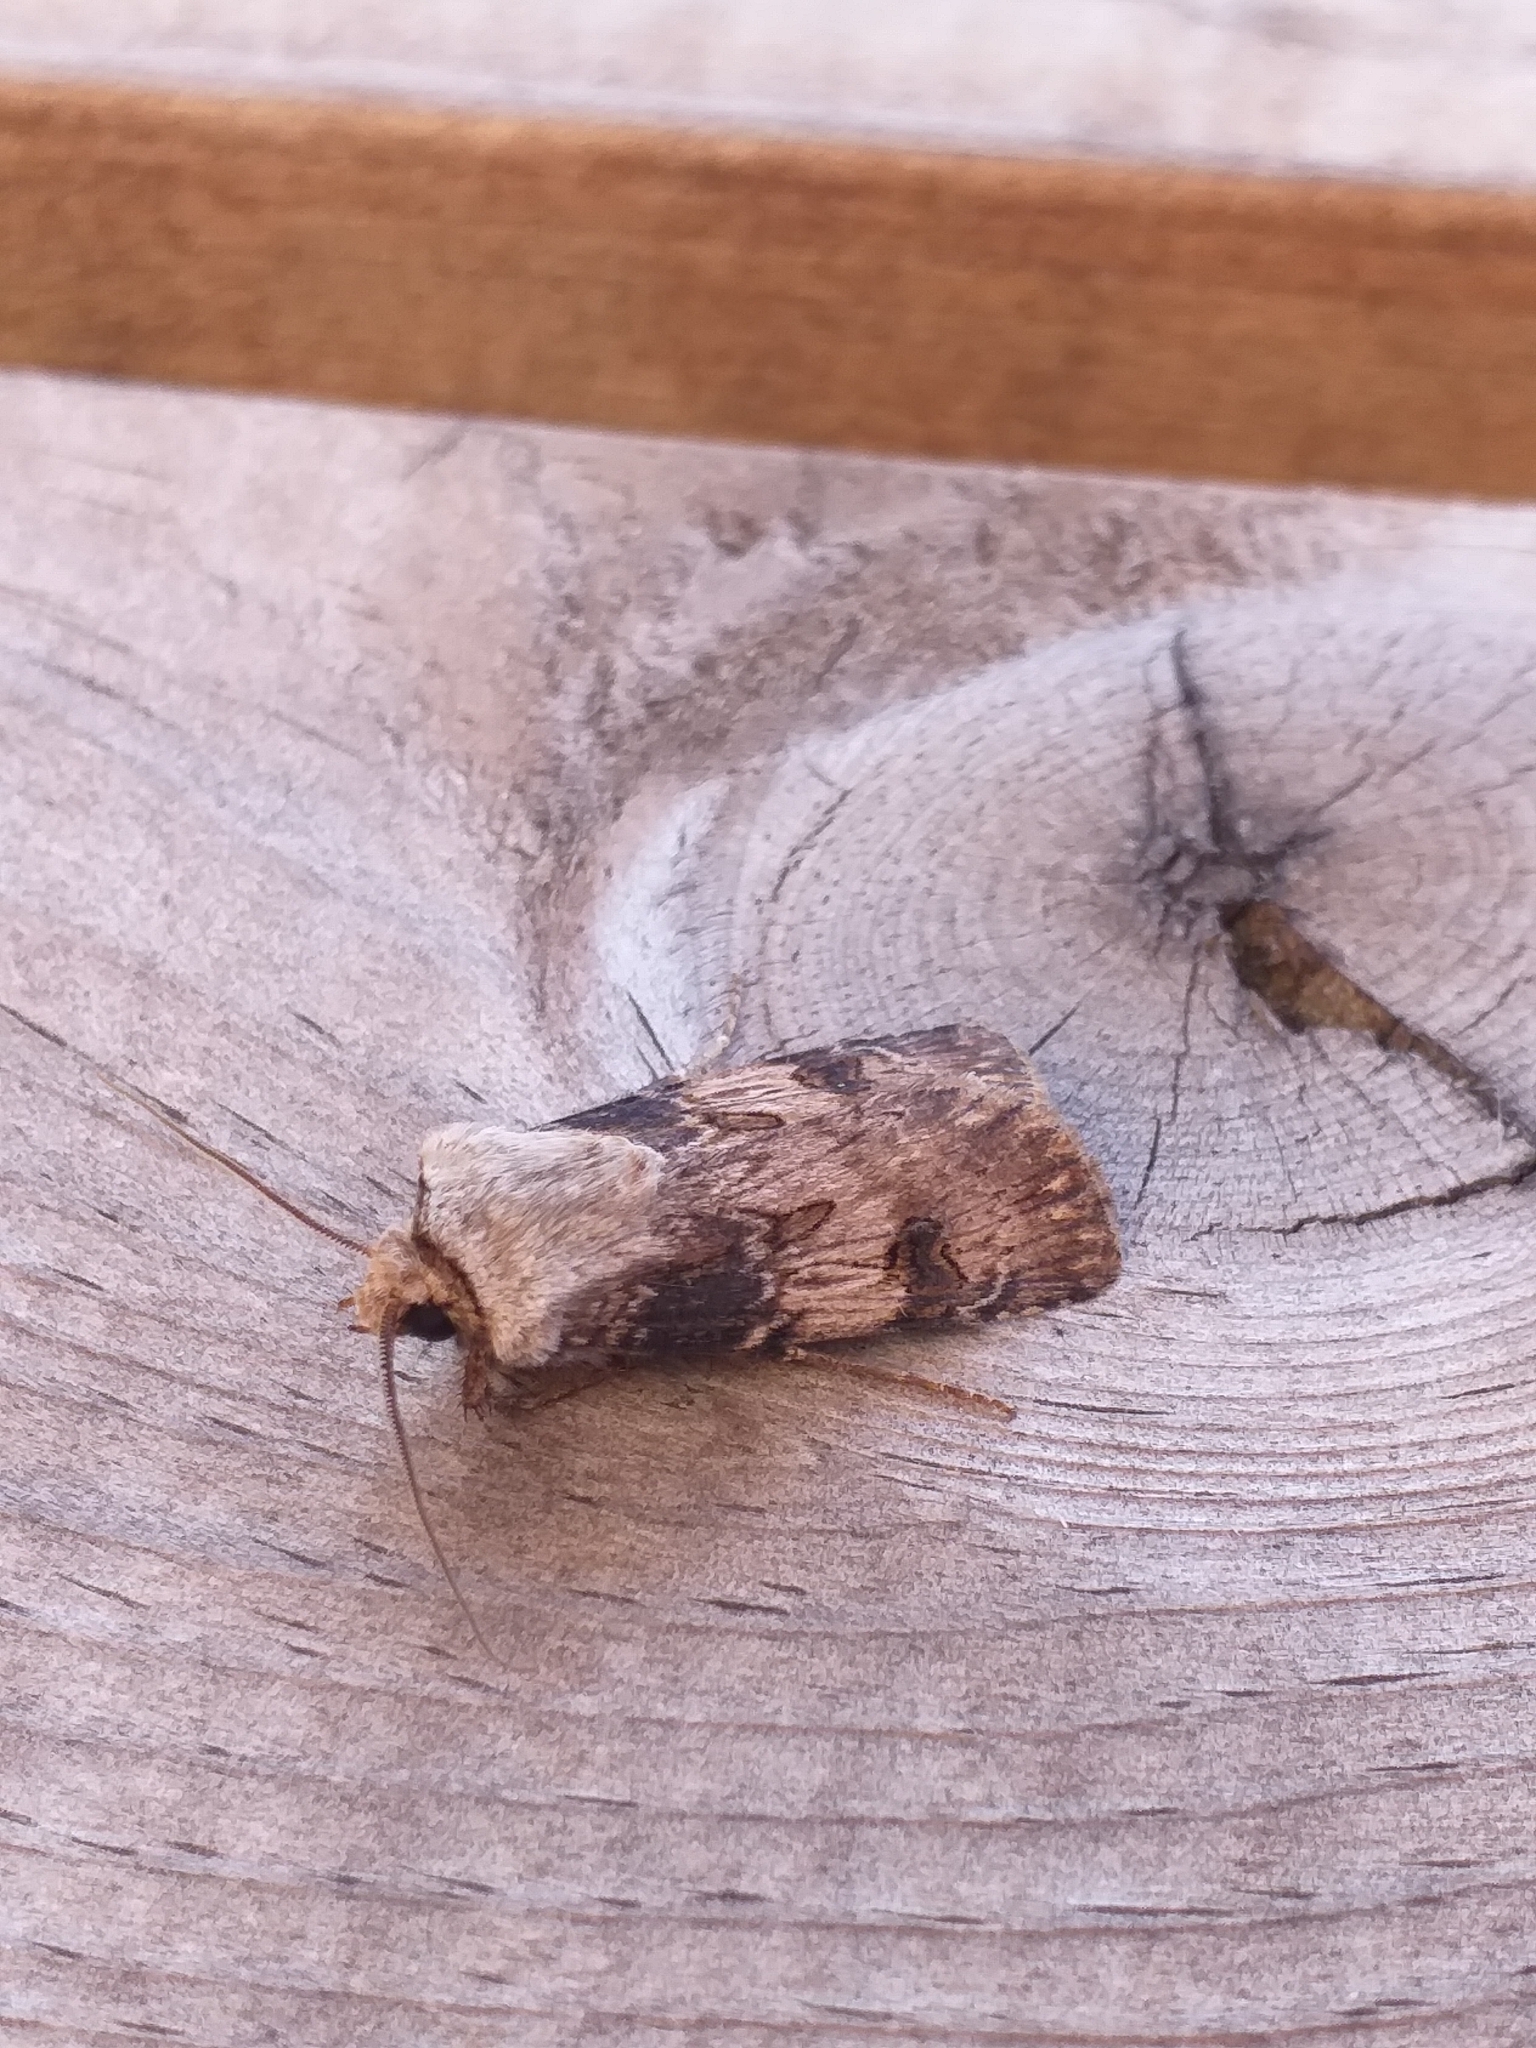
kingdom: Animalia
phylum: Arthropoda
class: Insecta
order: Lepidoptera
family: Noctuidae
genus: Agrotis
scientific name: Agrotis puta
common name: Shuttle-shaped dart
